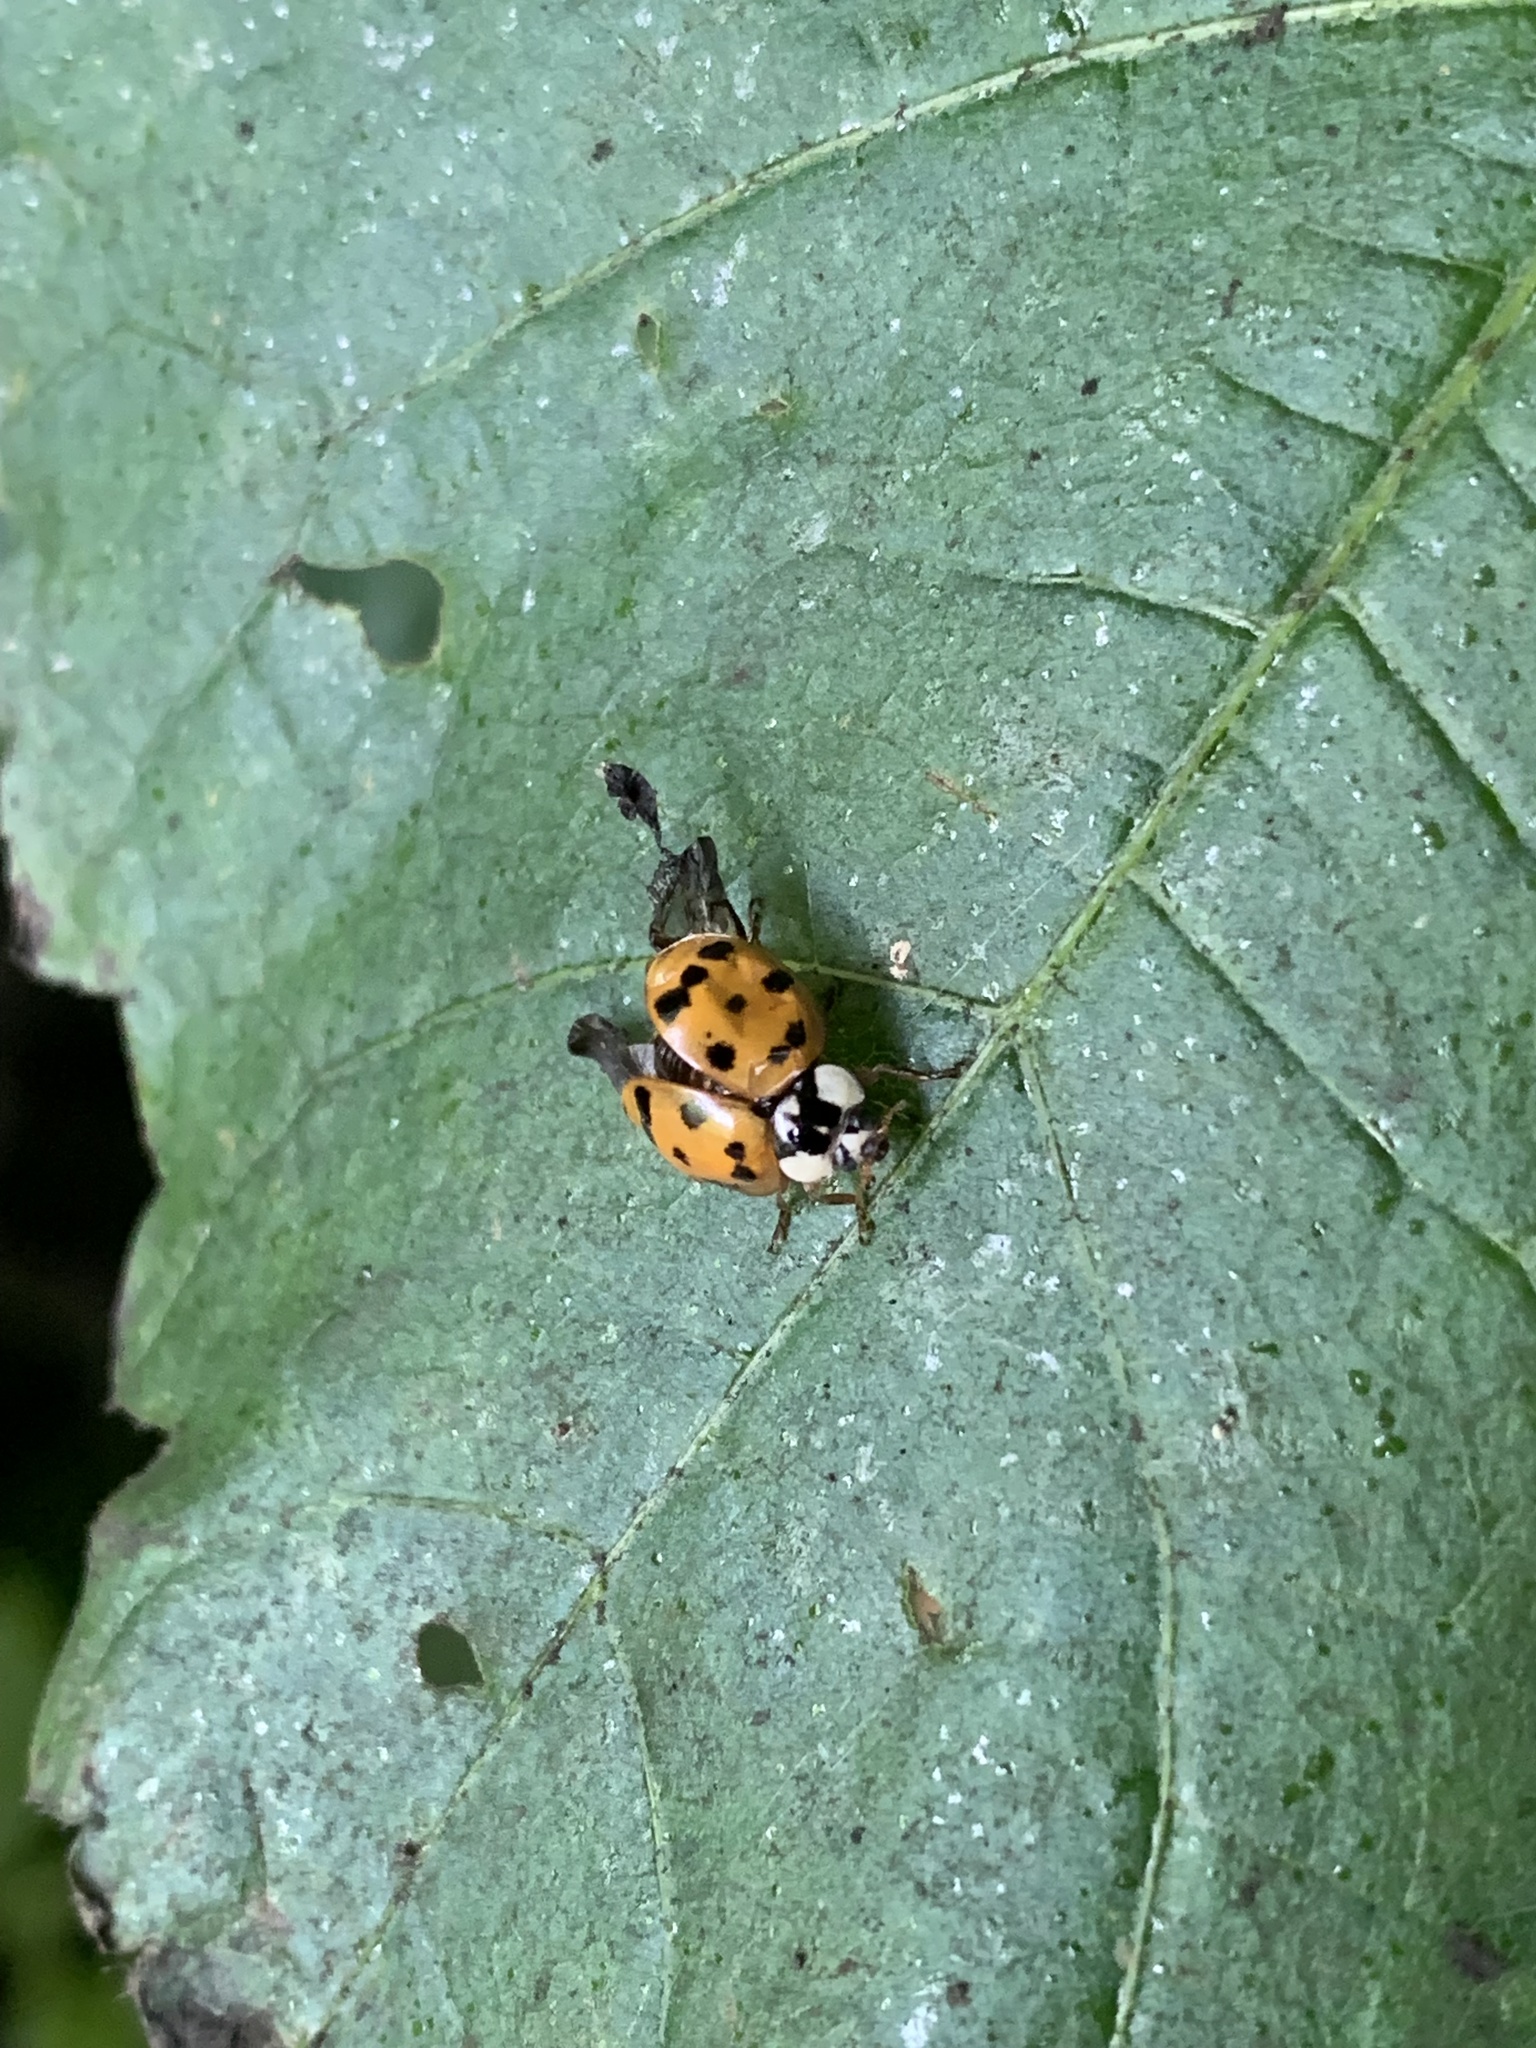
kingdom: Animalia
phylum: Arthropoda
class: Insecta
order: Coleoptera
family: Coccinellidae
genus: Harmonia
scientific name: Harmonia axyridis
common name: Harlequin ladybird
